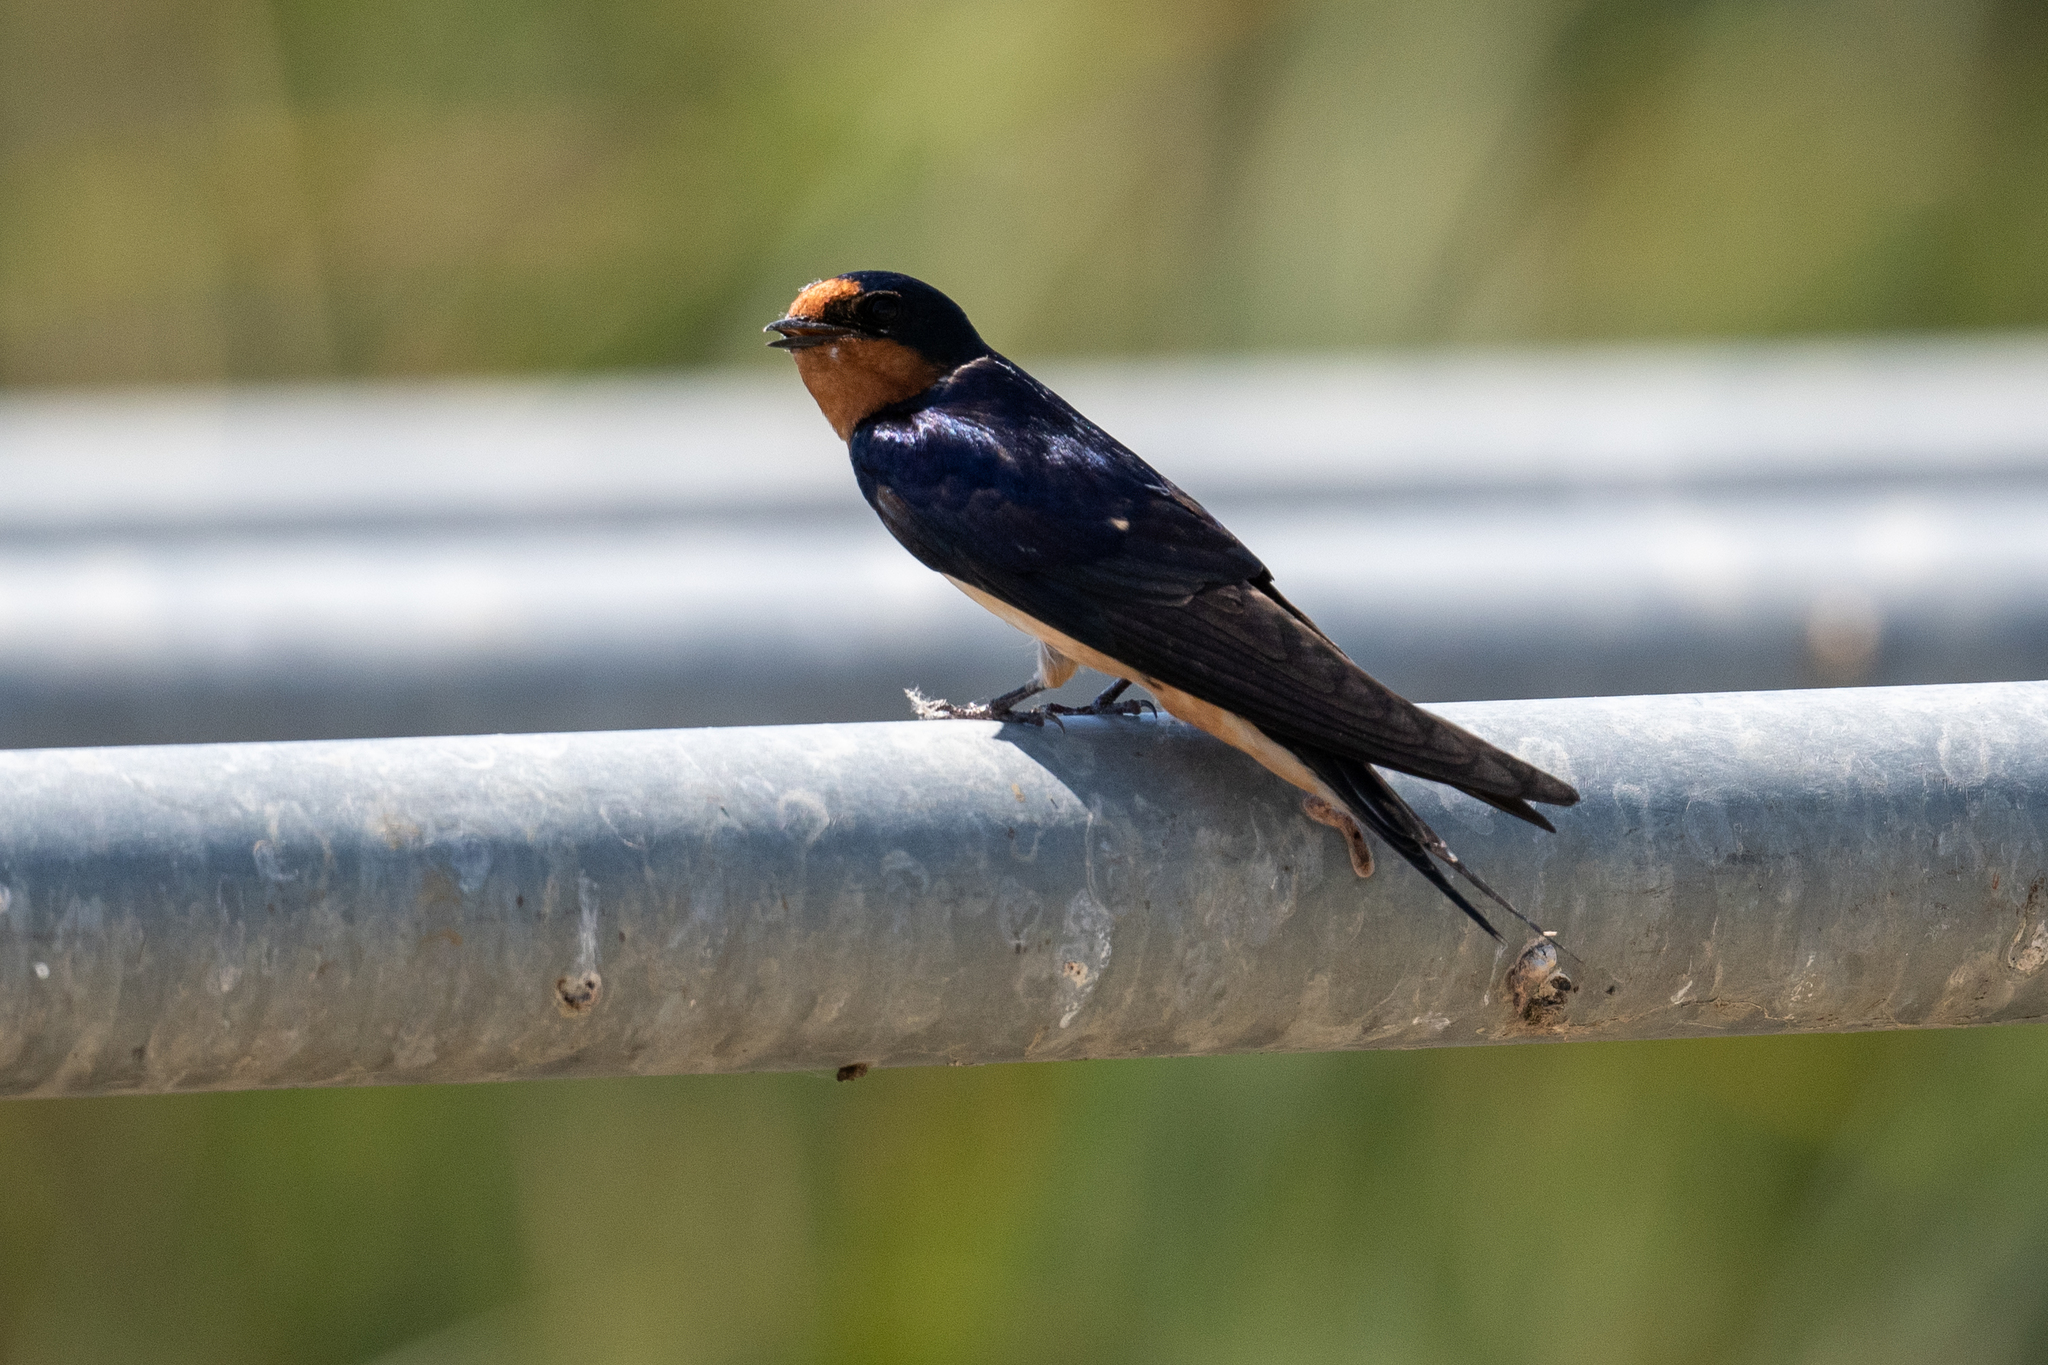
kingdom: Animalia
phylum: Chordata
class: Aves
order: Passeriformes
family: Hirundinidae
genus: Hirundo
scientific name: Hirundo rustica
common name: Barn swallow
